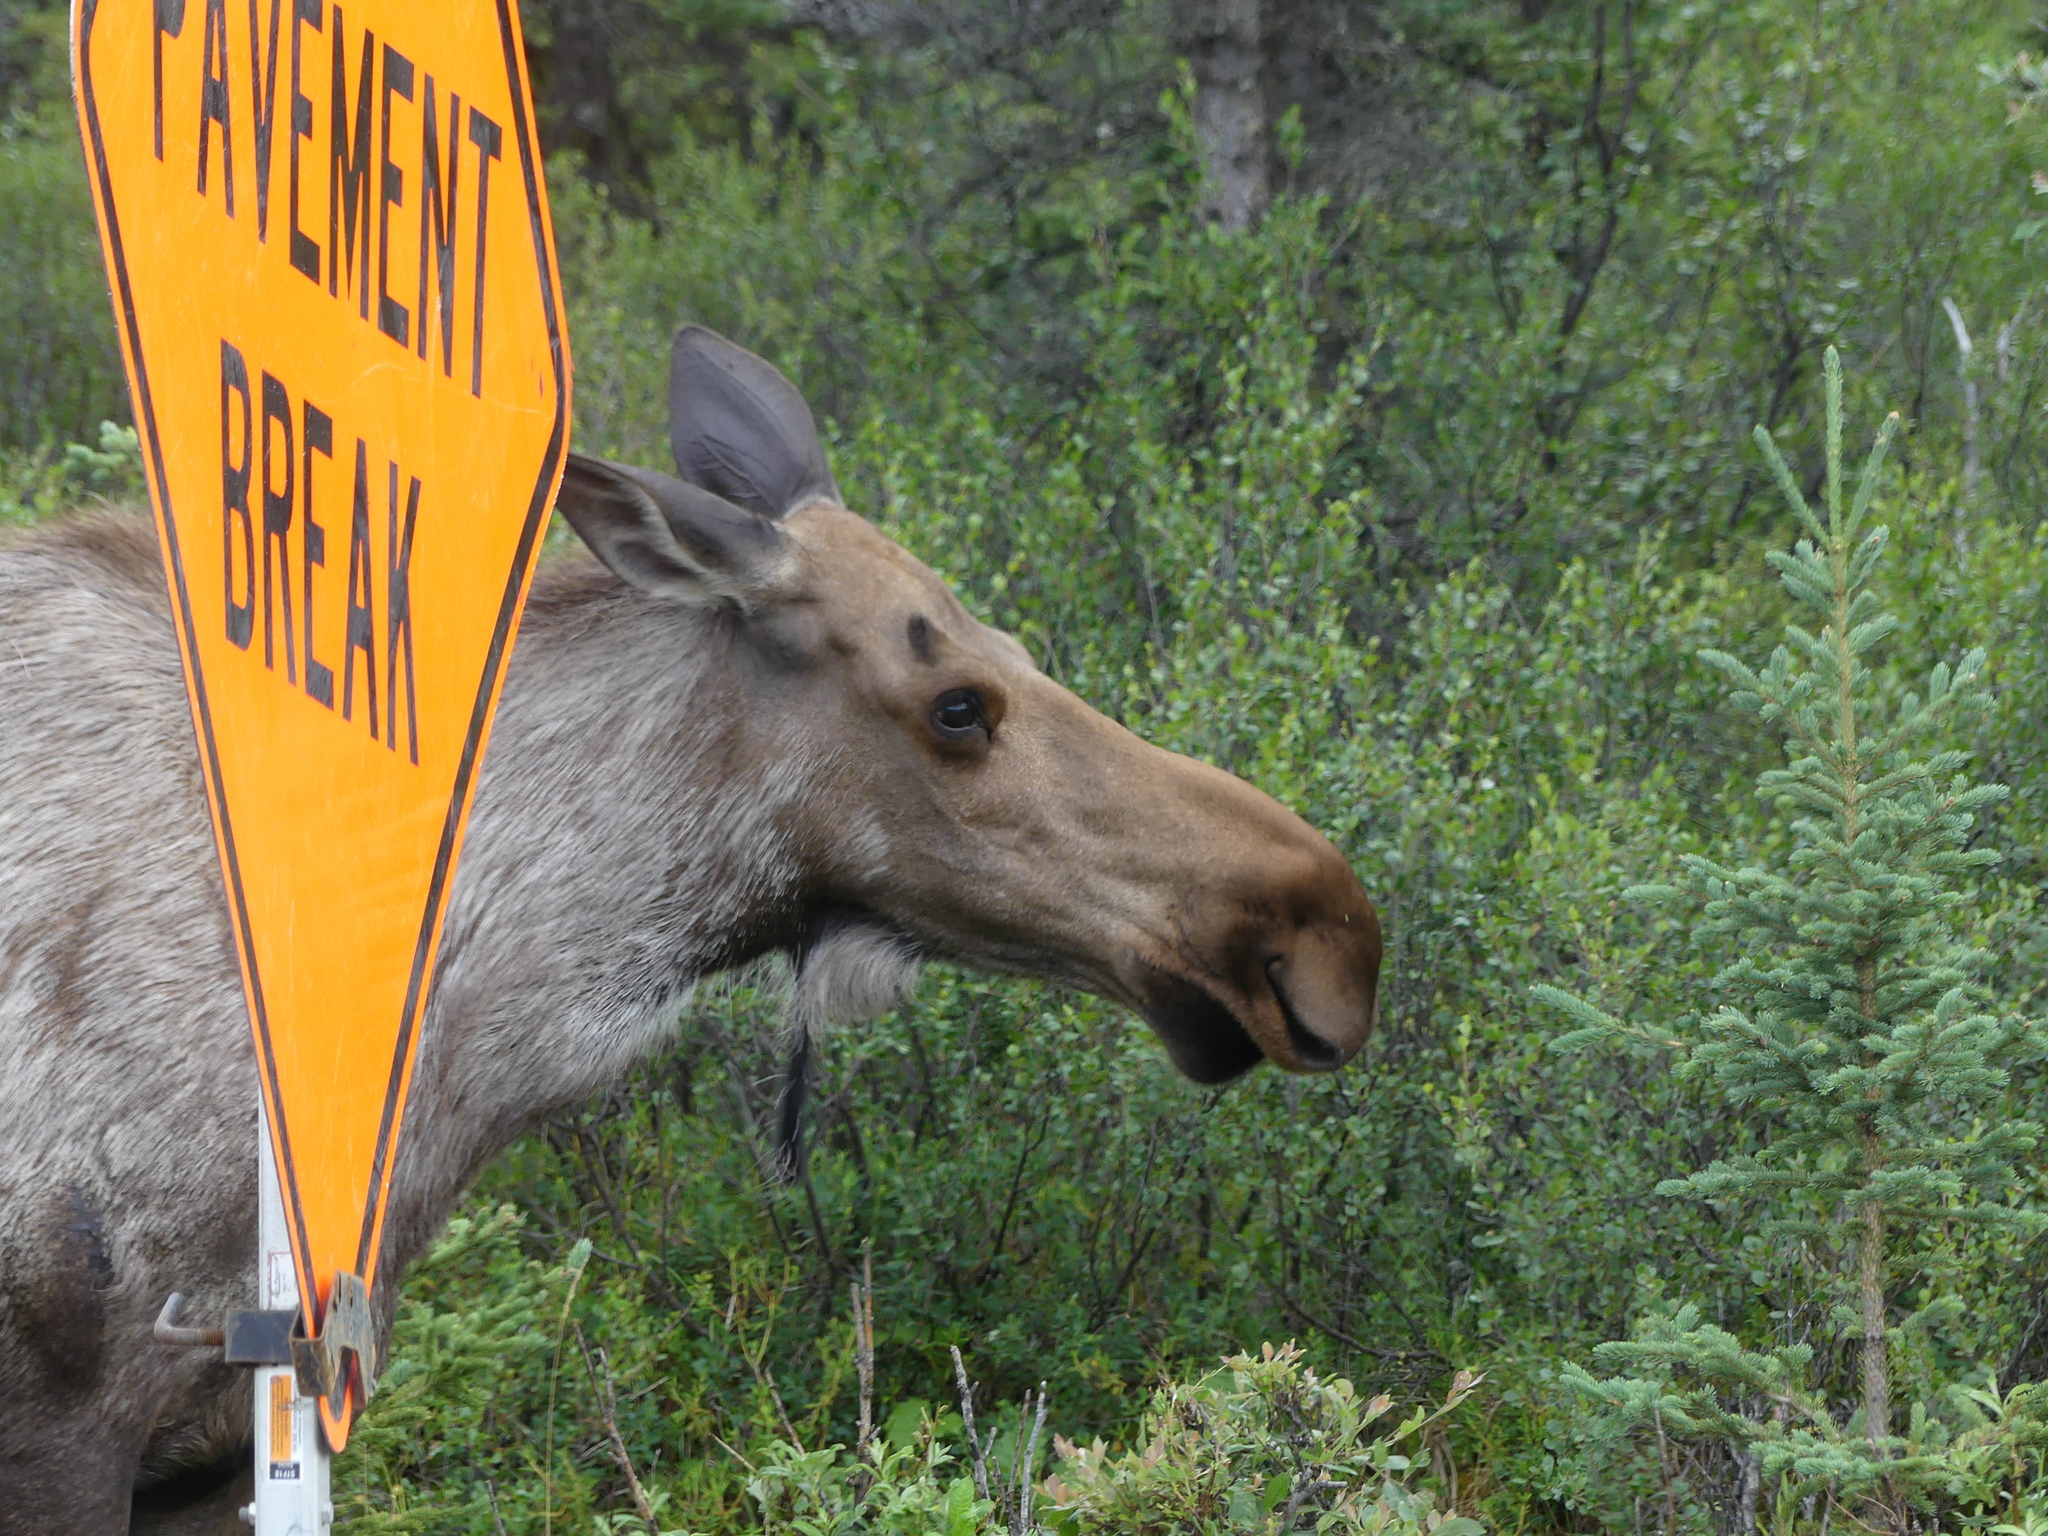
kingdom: Animalia
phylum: Chordata
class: Mammalia
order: Artiodactyla
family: Cervidae
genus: Alces
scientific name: Alces alces
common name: Moose
